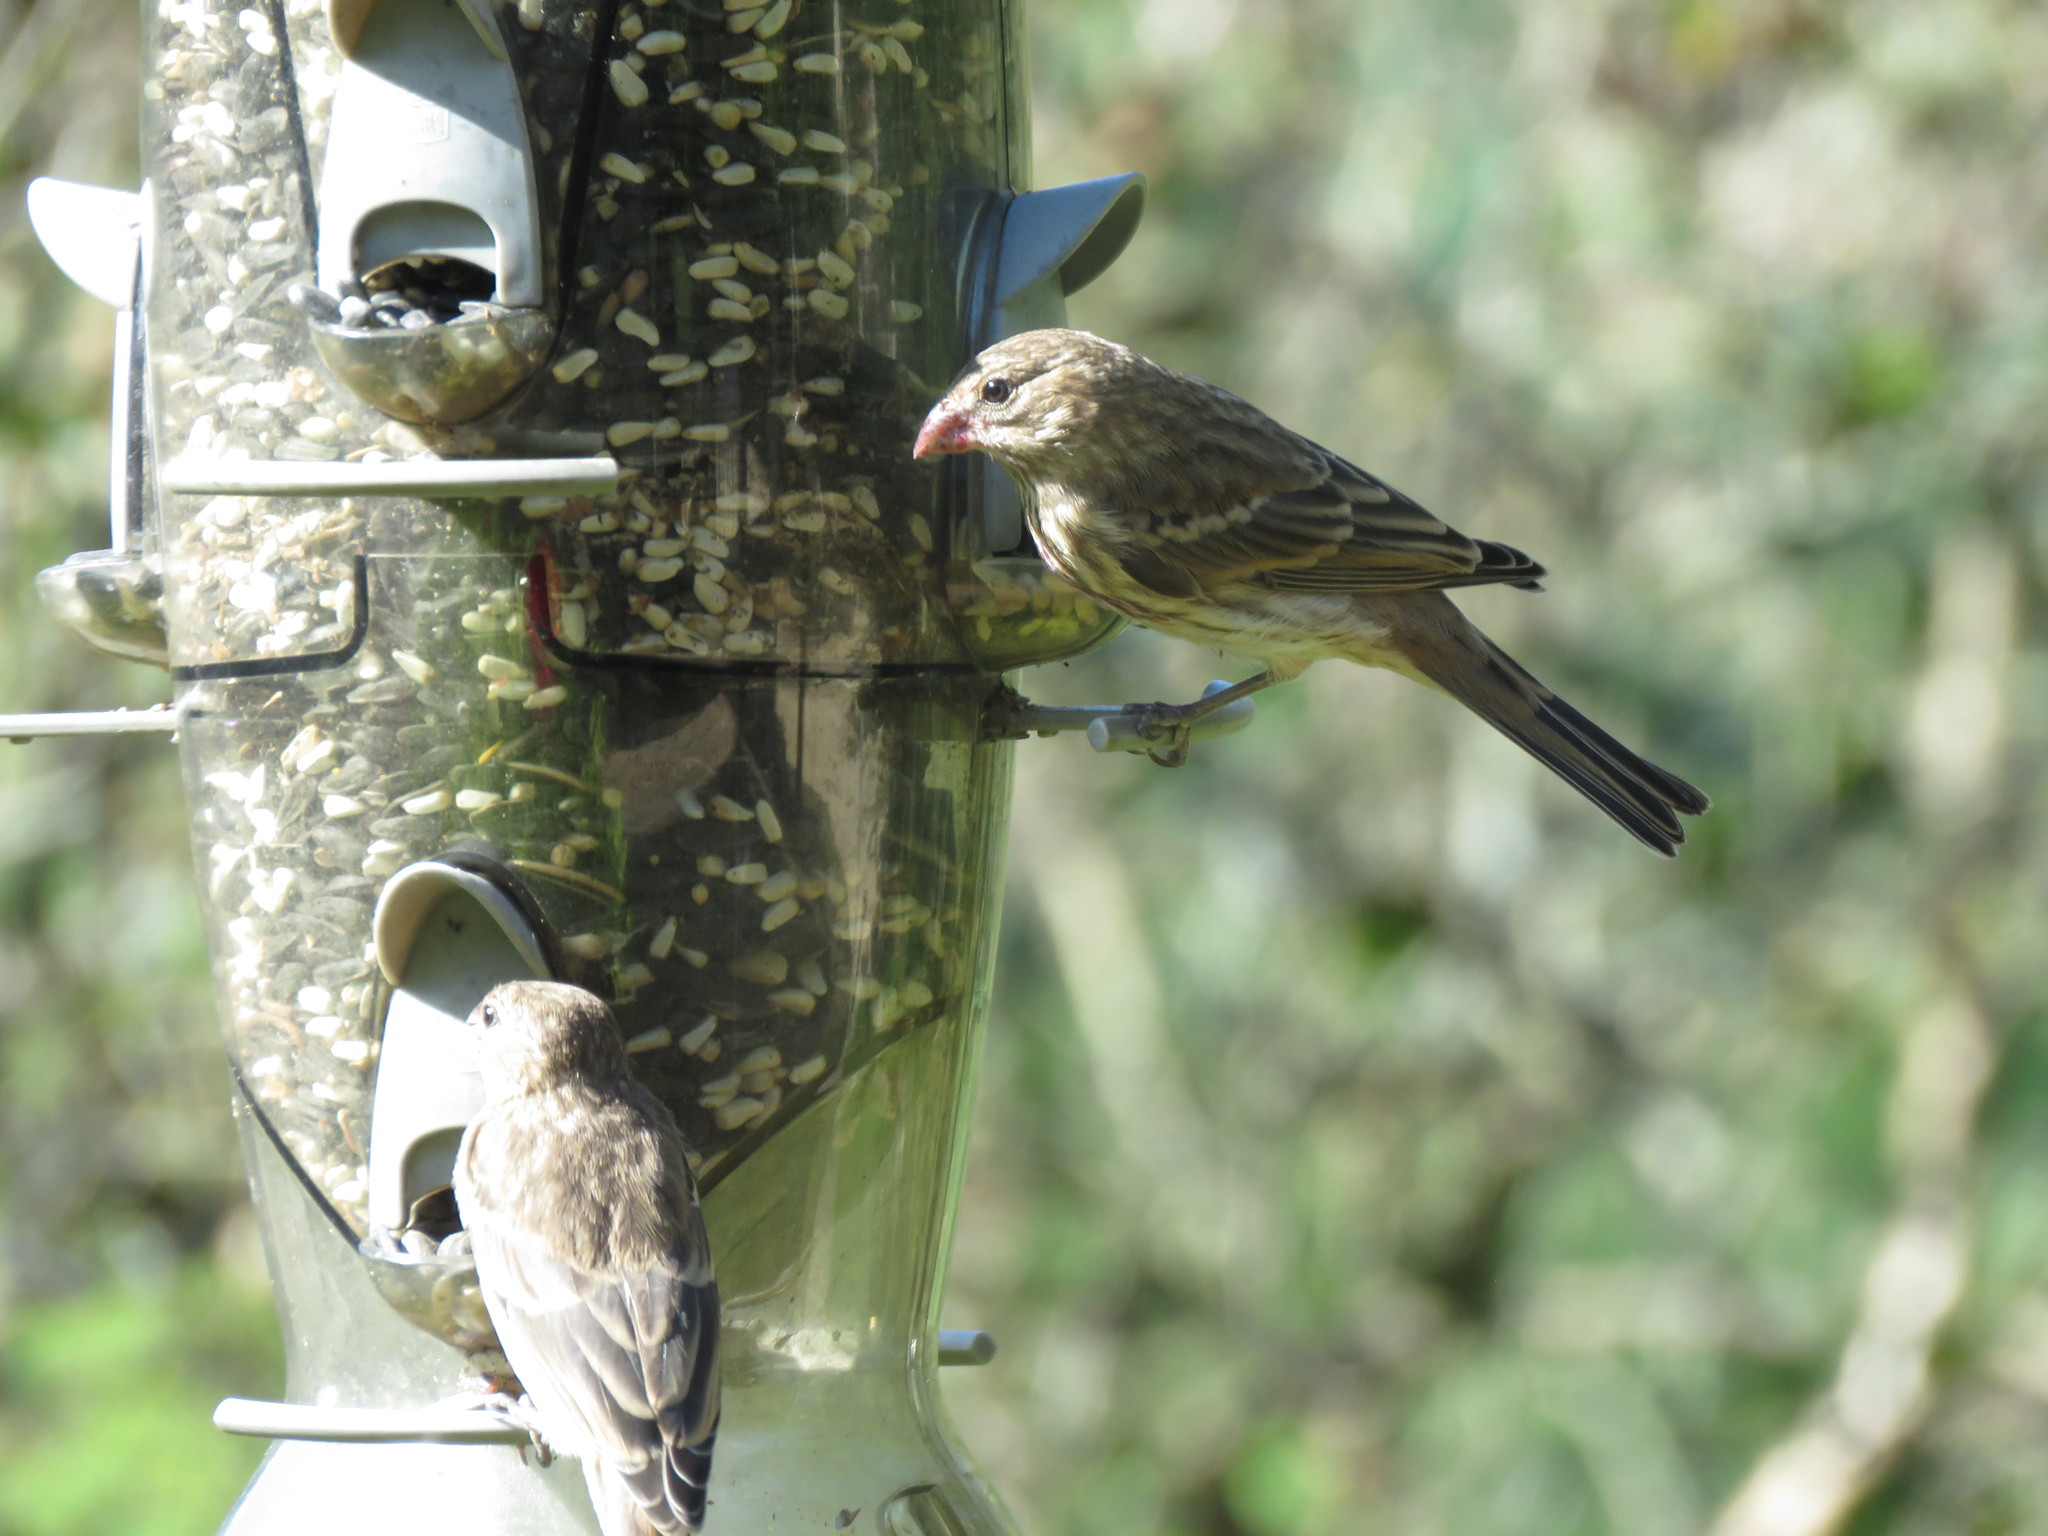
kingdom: Animalia
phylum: Chordata
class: Aves
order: Passeriformes
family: Fringillidae
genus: Haemorhous
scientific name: Haemorhous mexicanus
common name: House finch
